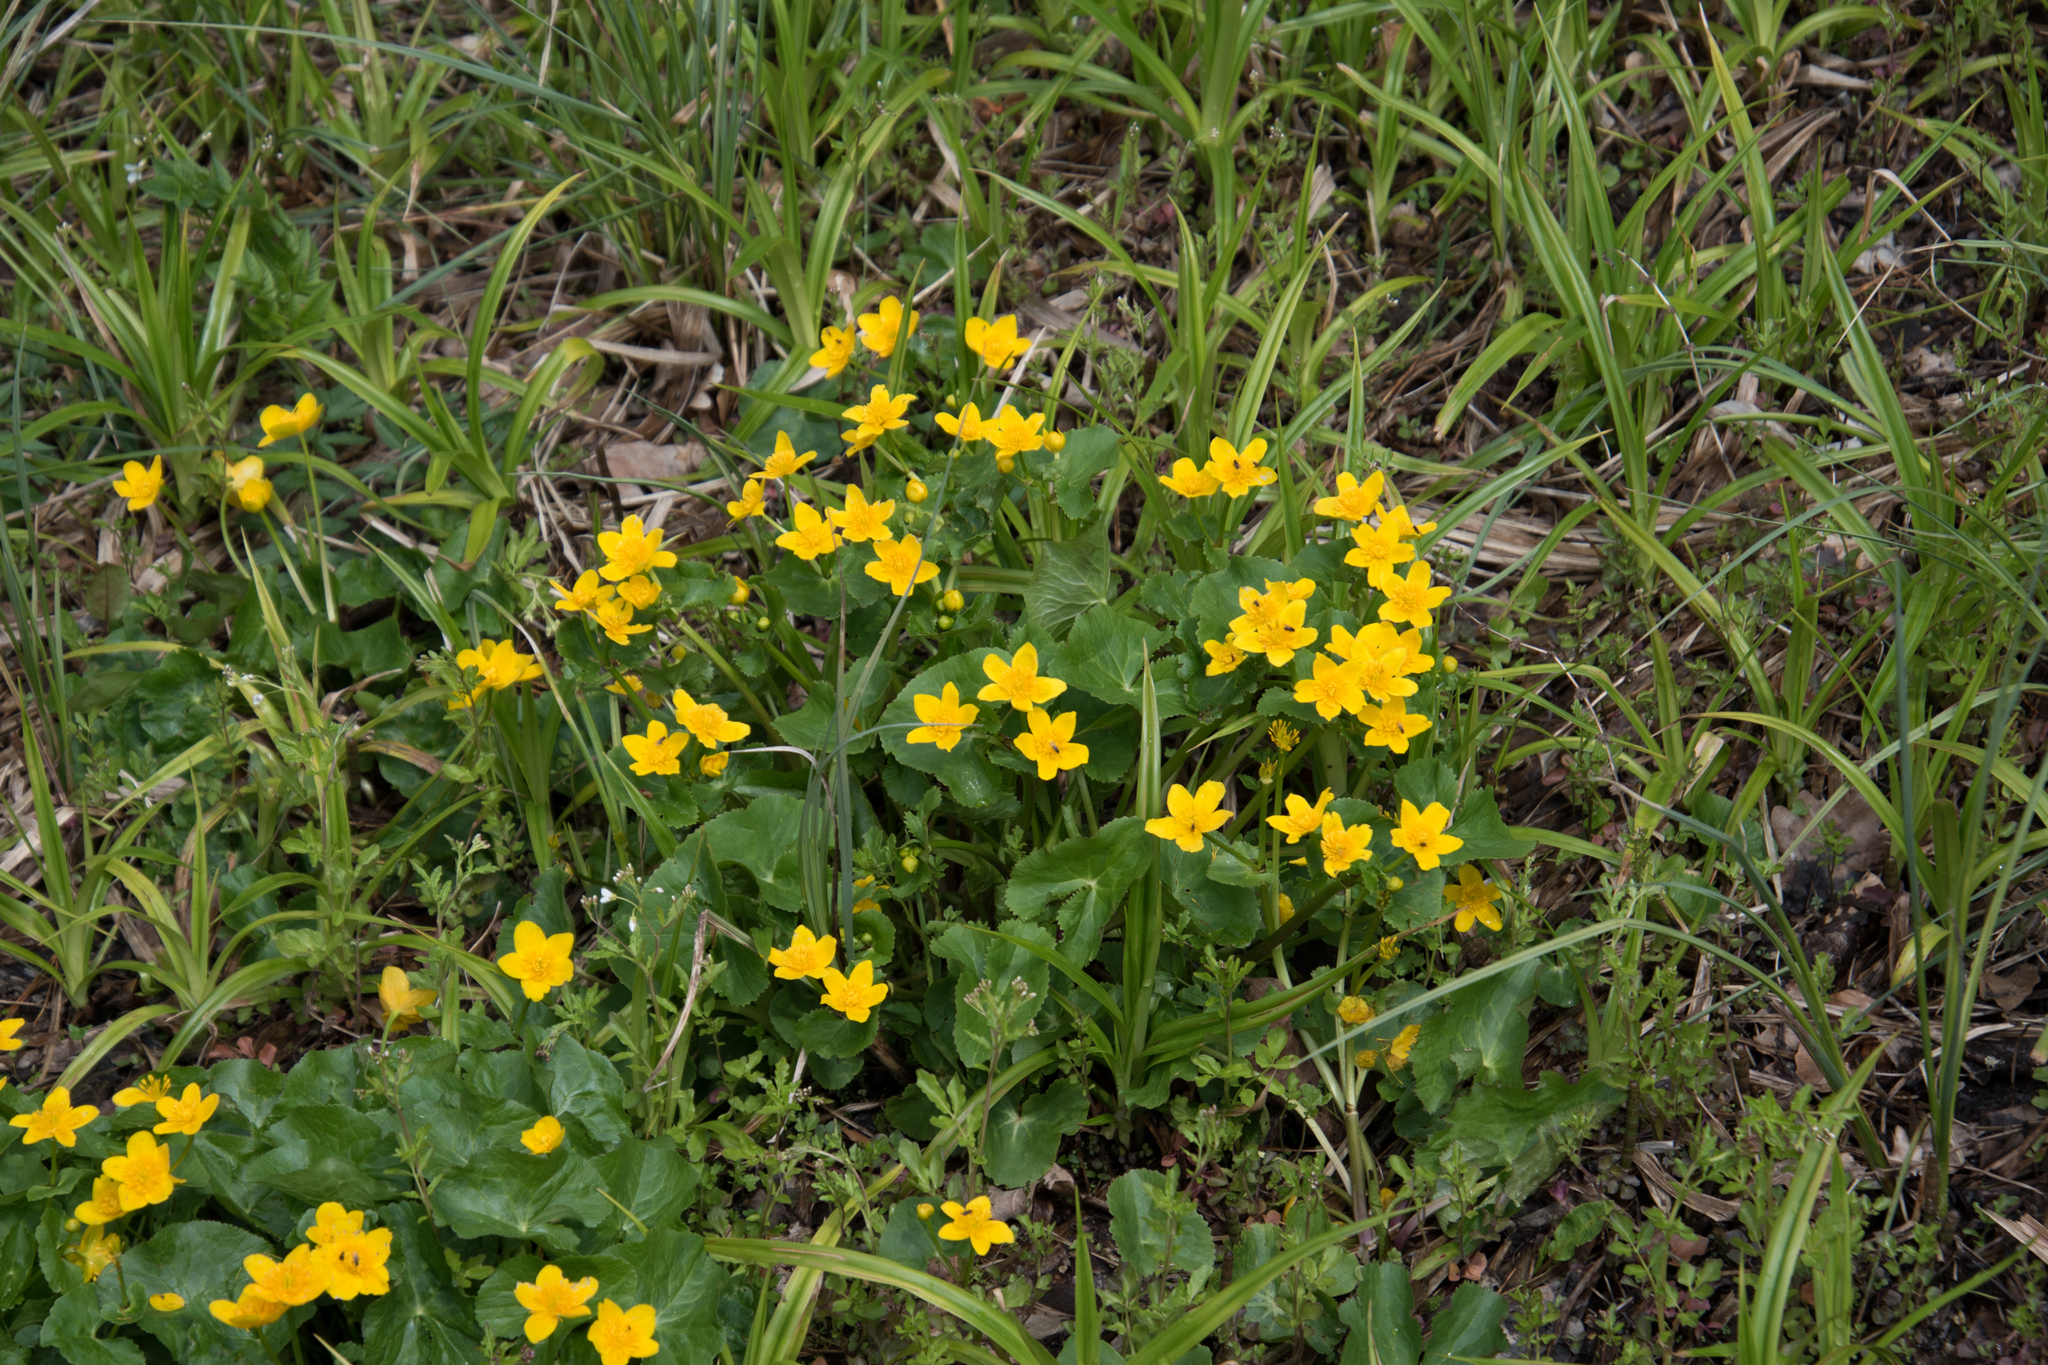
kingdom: Plantae
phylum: Tracheophyta
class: Magnoliopsida
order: Ranunculales
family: Ranunculaceae
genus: Caltha
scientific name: Caltha palustris
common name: Marsh marigold
